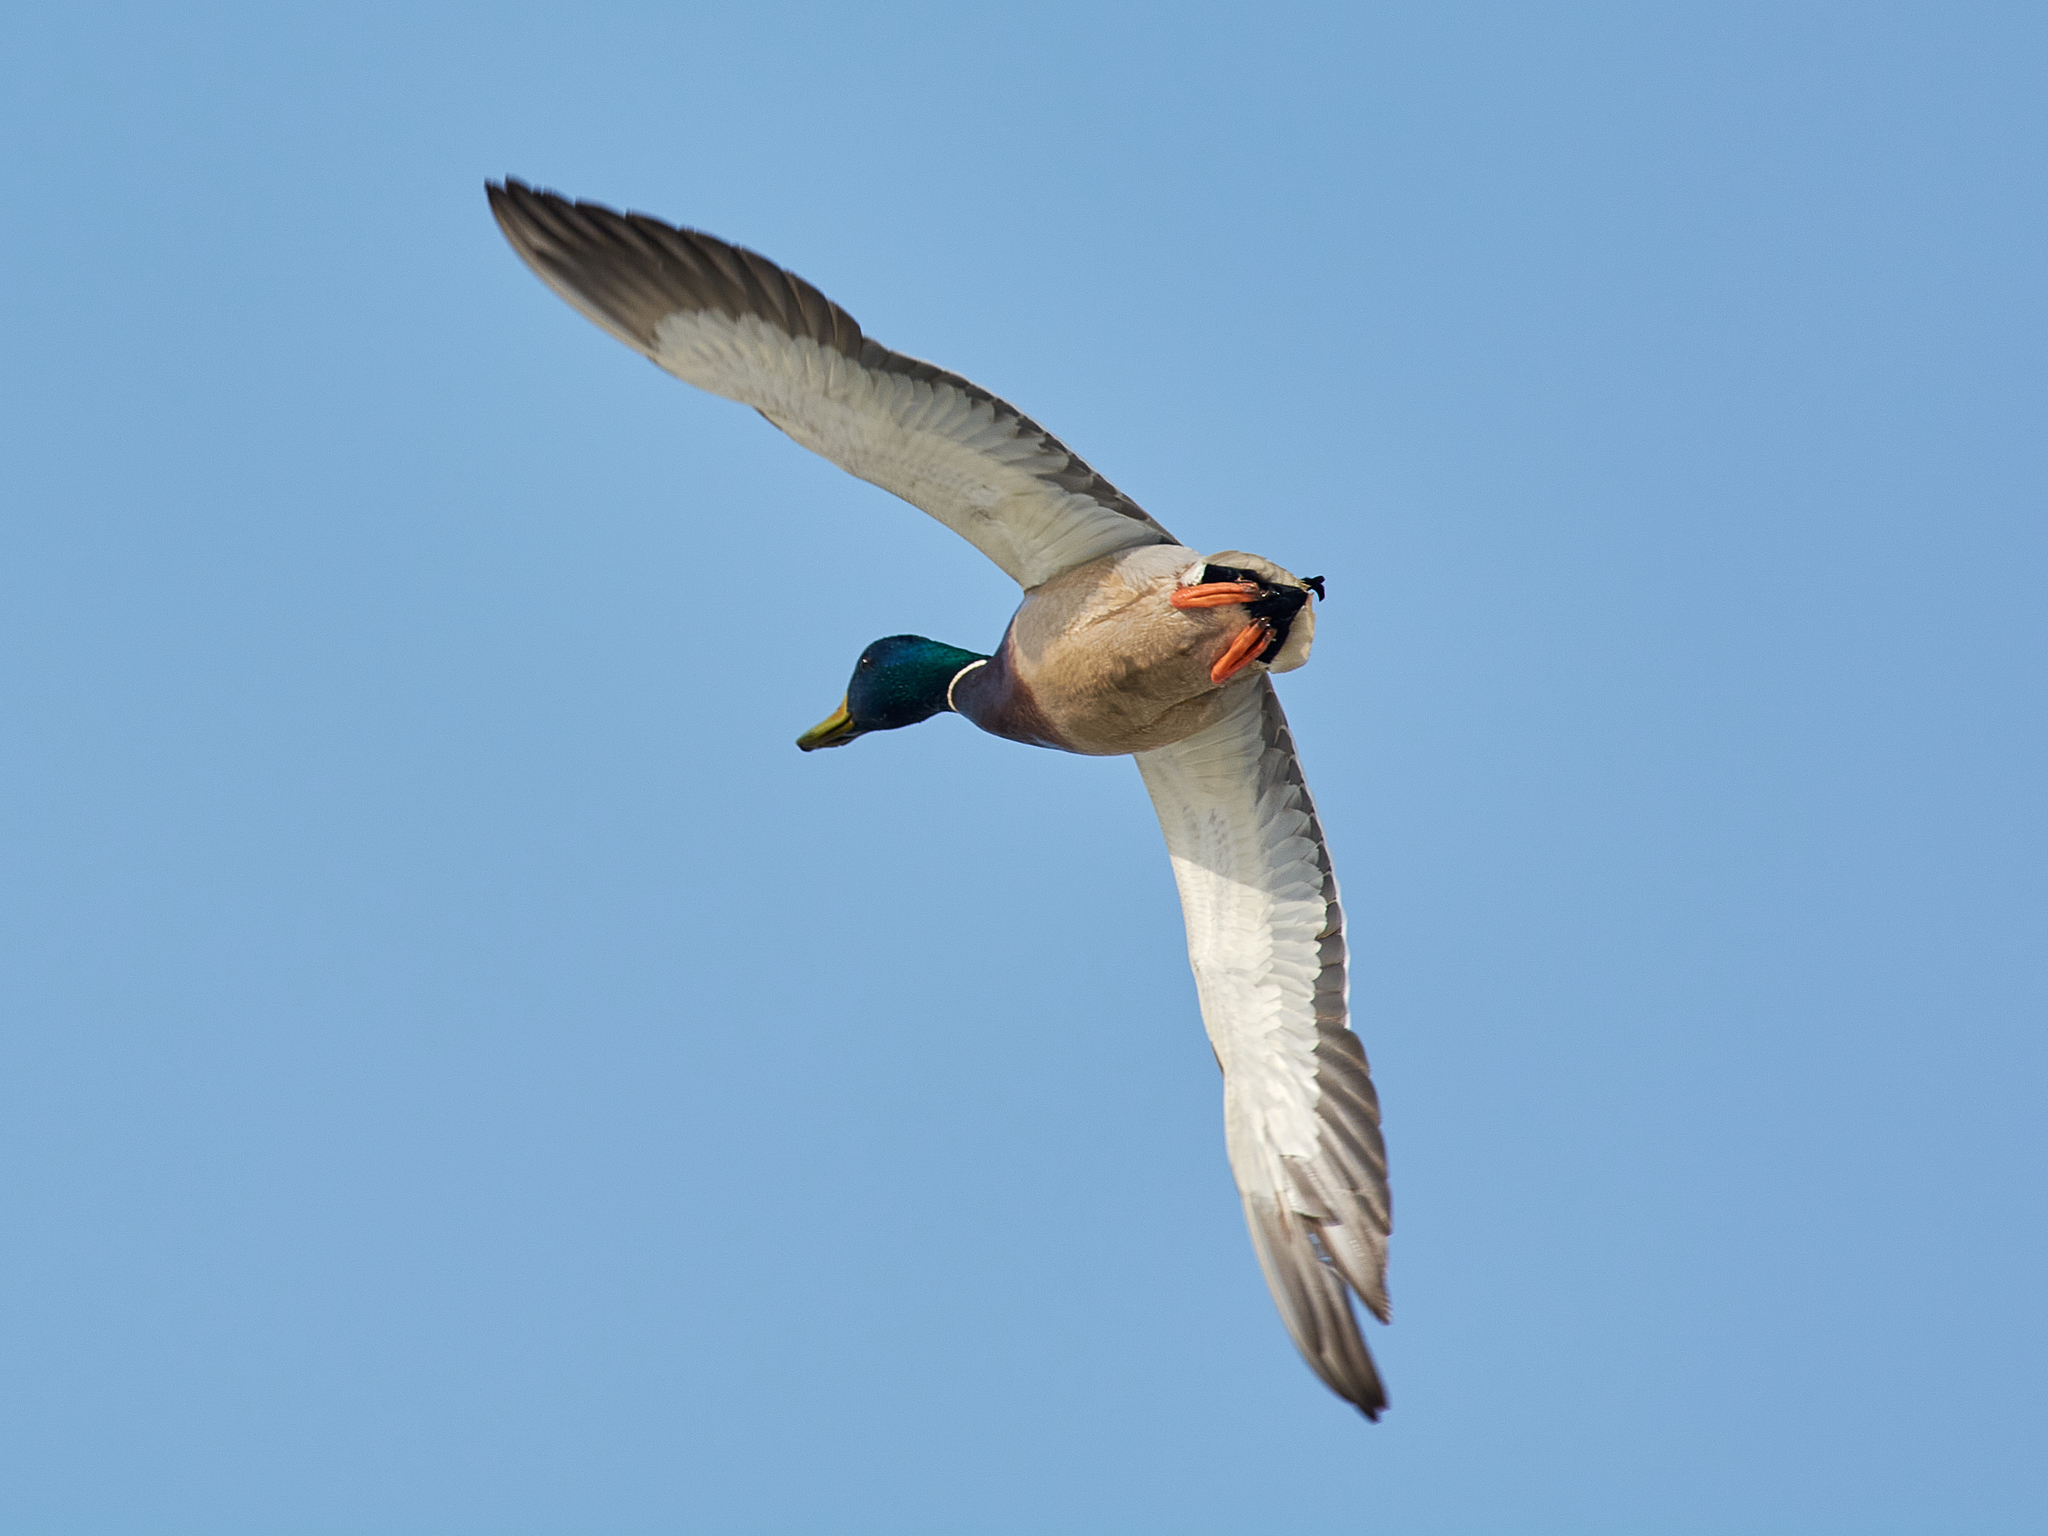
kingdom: Animalia
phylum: Chordata
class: Aves
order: Anseriformes
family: Anatidae
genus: Anas
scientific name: Anas platyrhynchos
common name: Mallard
